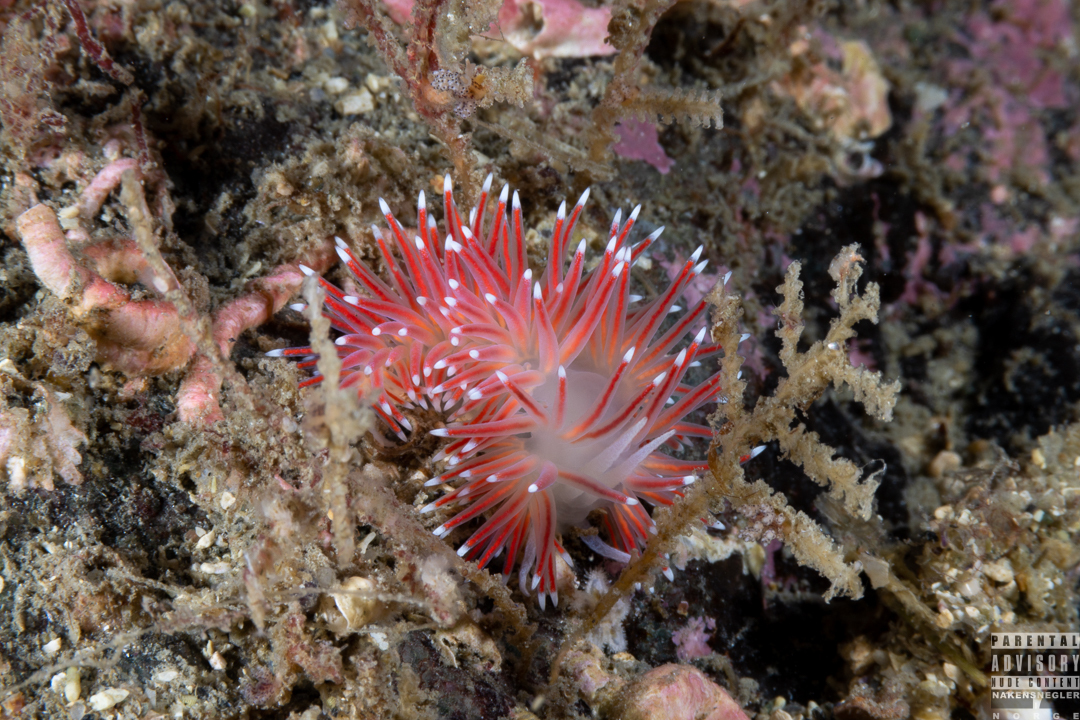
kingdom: Animalia
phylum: Mollusca
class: Gastropoda
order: Nudibranchia
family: Flabellinidae
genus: Carronella
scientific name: Carronella pellucida
